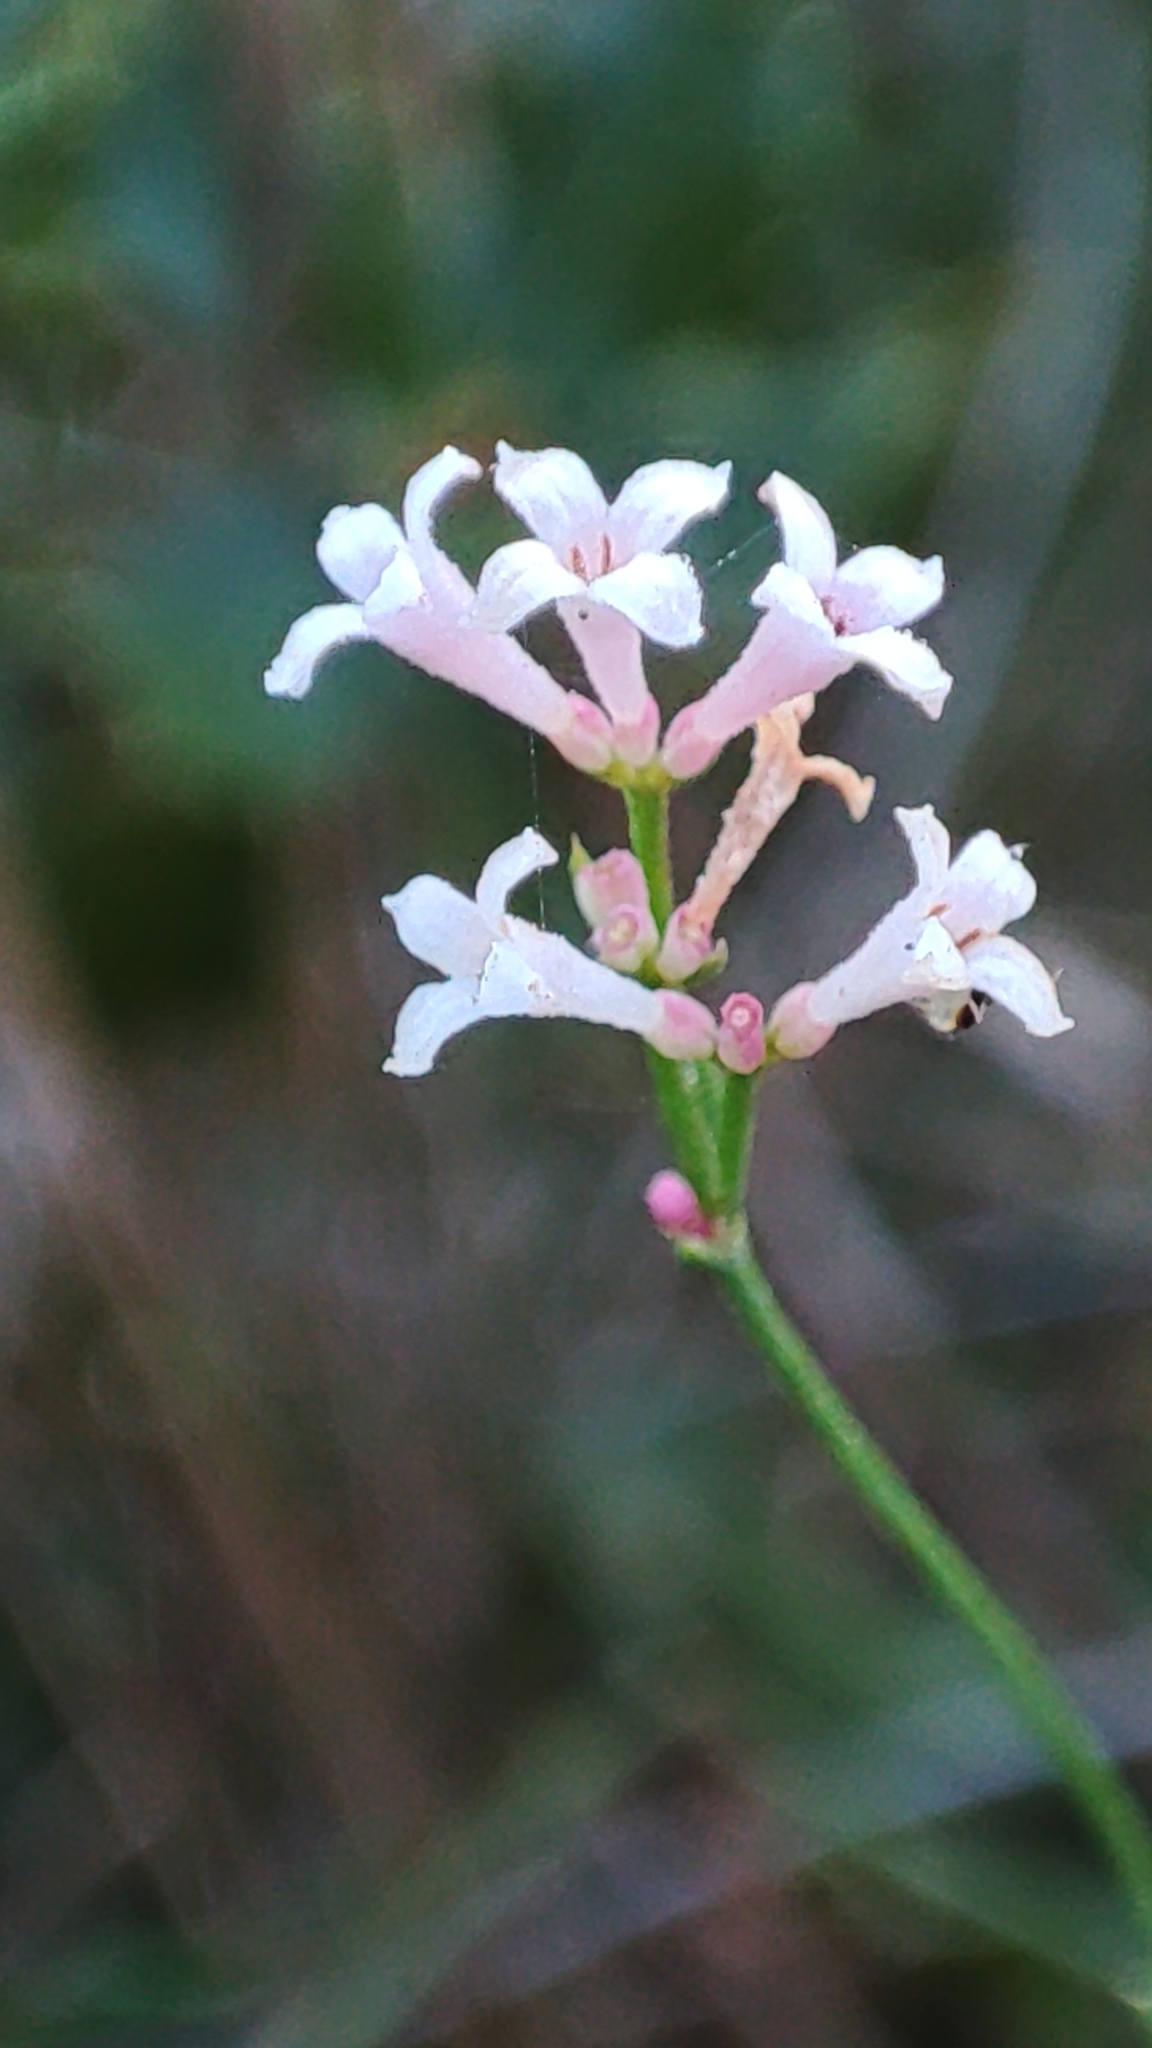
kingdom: Plantae
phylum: Tracheophyta
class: Magnoliopsida
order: Gentianales
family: Rubiaceae
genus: Cynanchica
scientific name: Cynanchica pyrenaica
